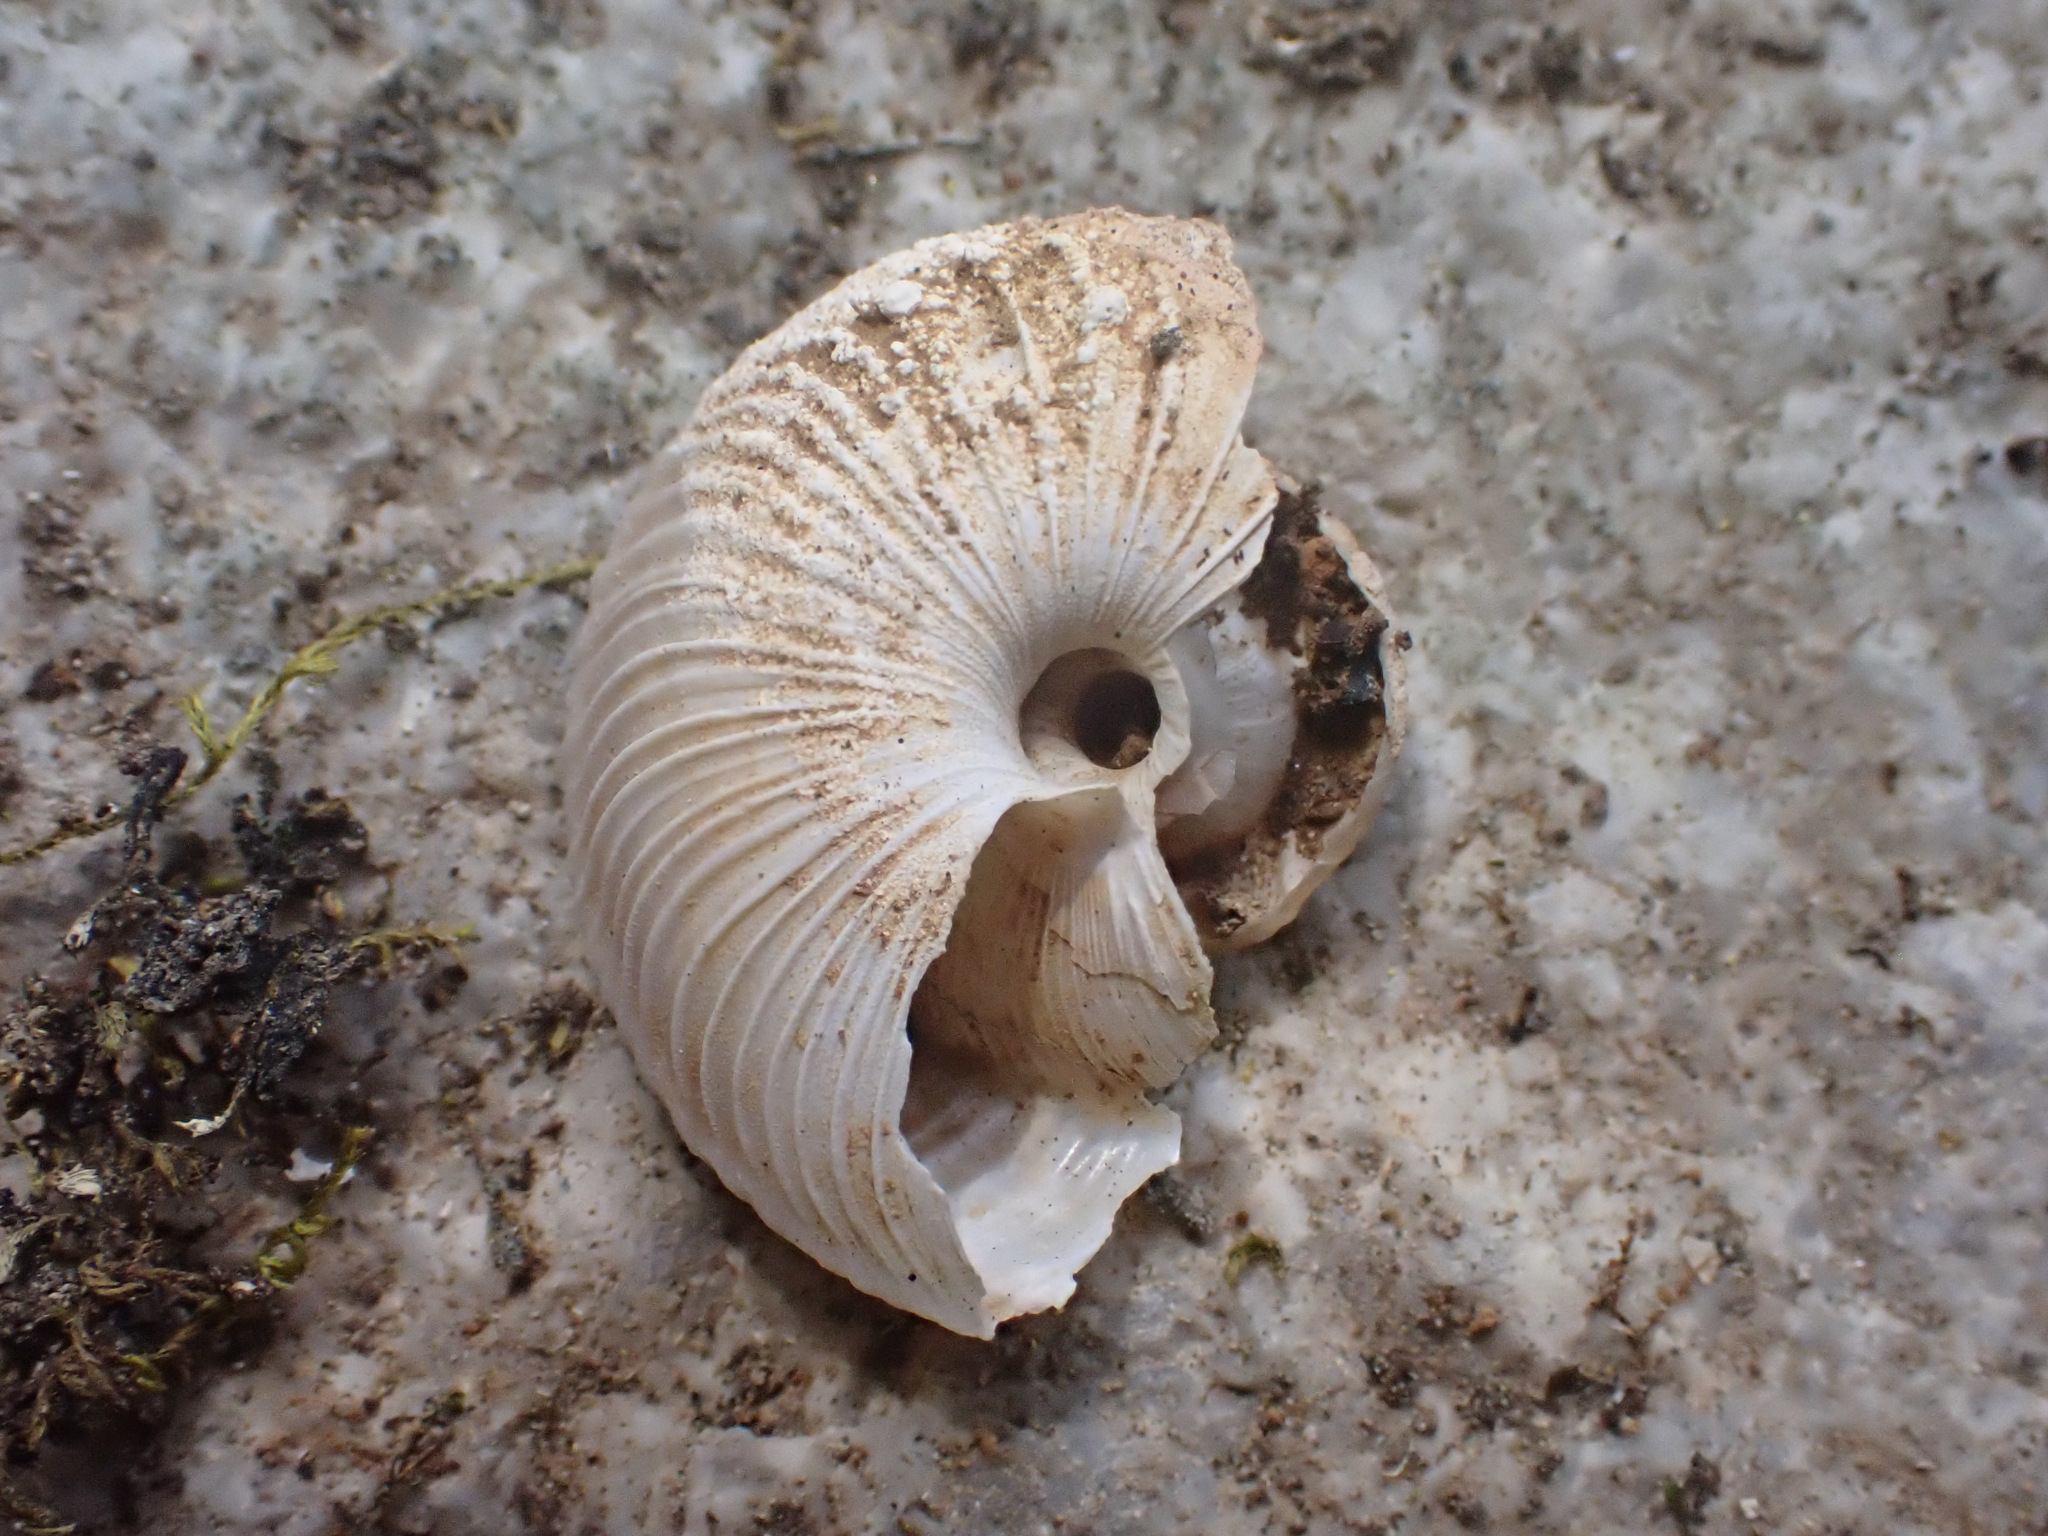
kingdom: Animalia
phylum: Mollusca
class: Gastropoda
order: Stylommatophora
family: Xanthonychidae
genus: Monadenia
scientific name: Monadenia circumcarinata
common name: Keeled sideband
